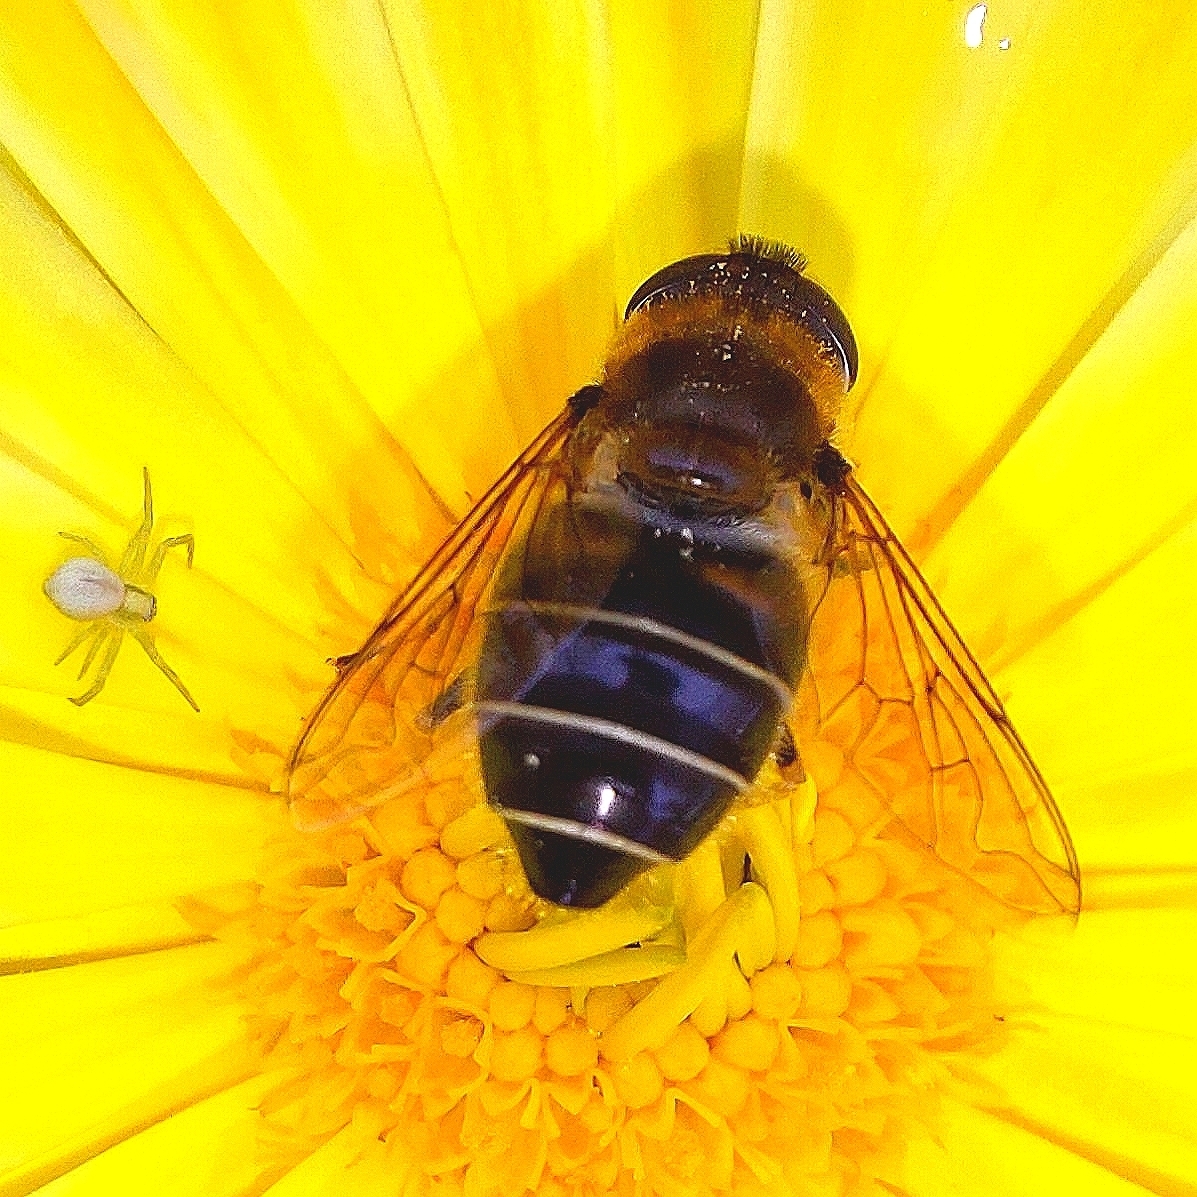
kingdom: Animalia
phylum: Arthropoda
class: Insecta
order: Diptera
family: Syrphidae
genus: Eristalis
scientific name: Eristalis nemorum
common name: Orange-spined drone fly
